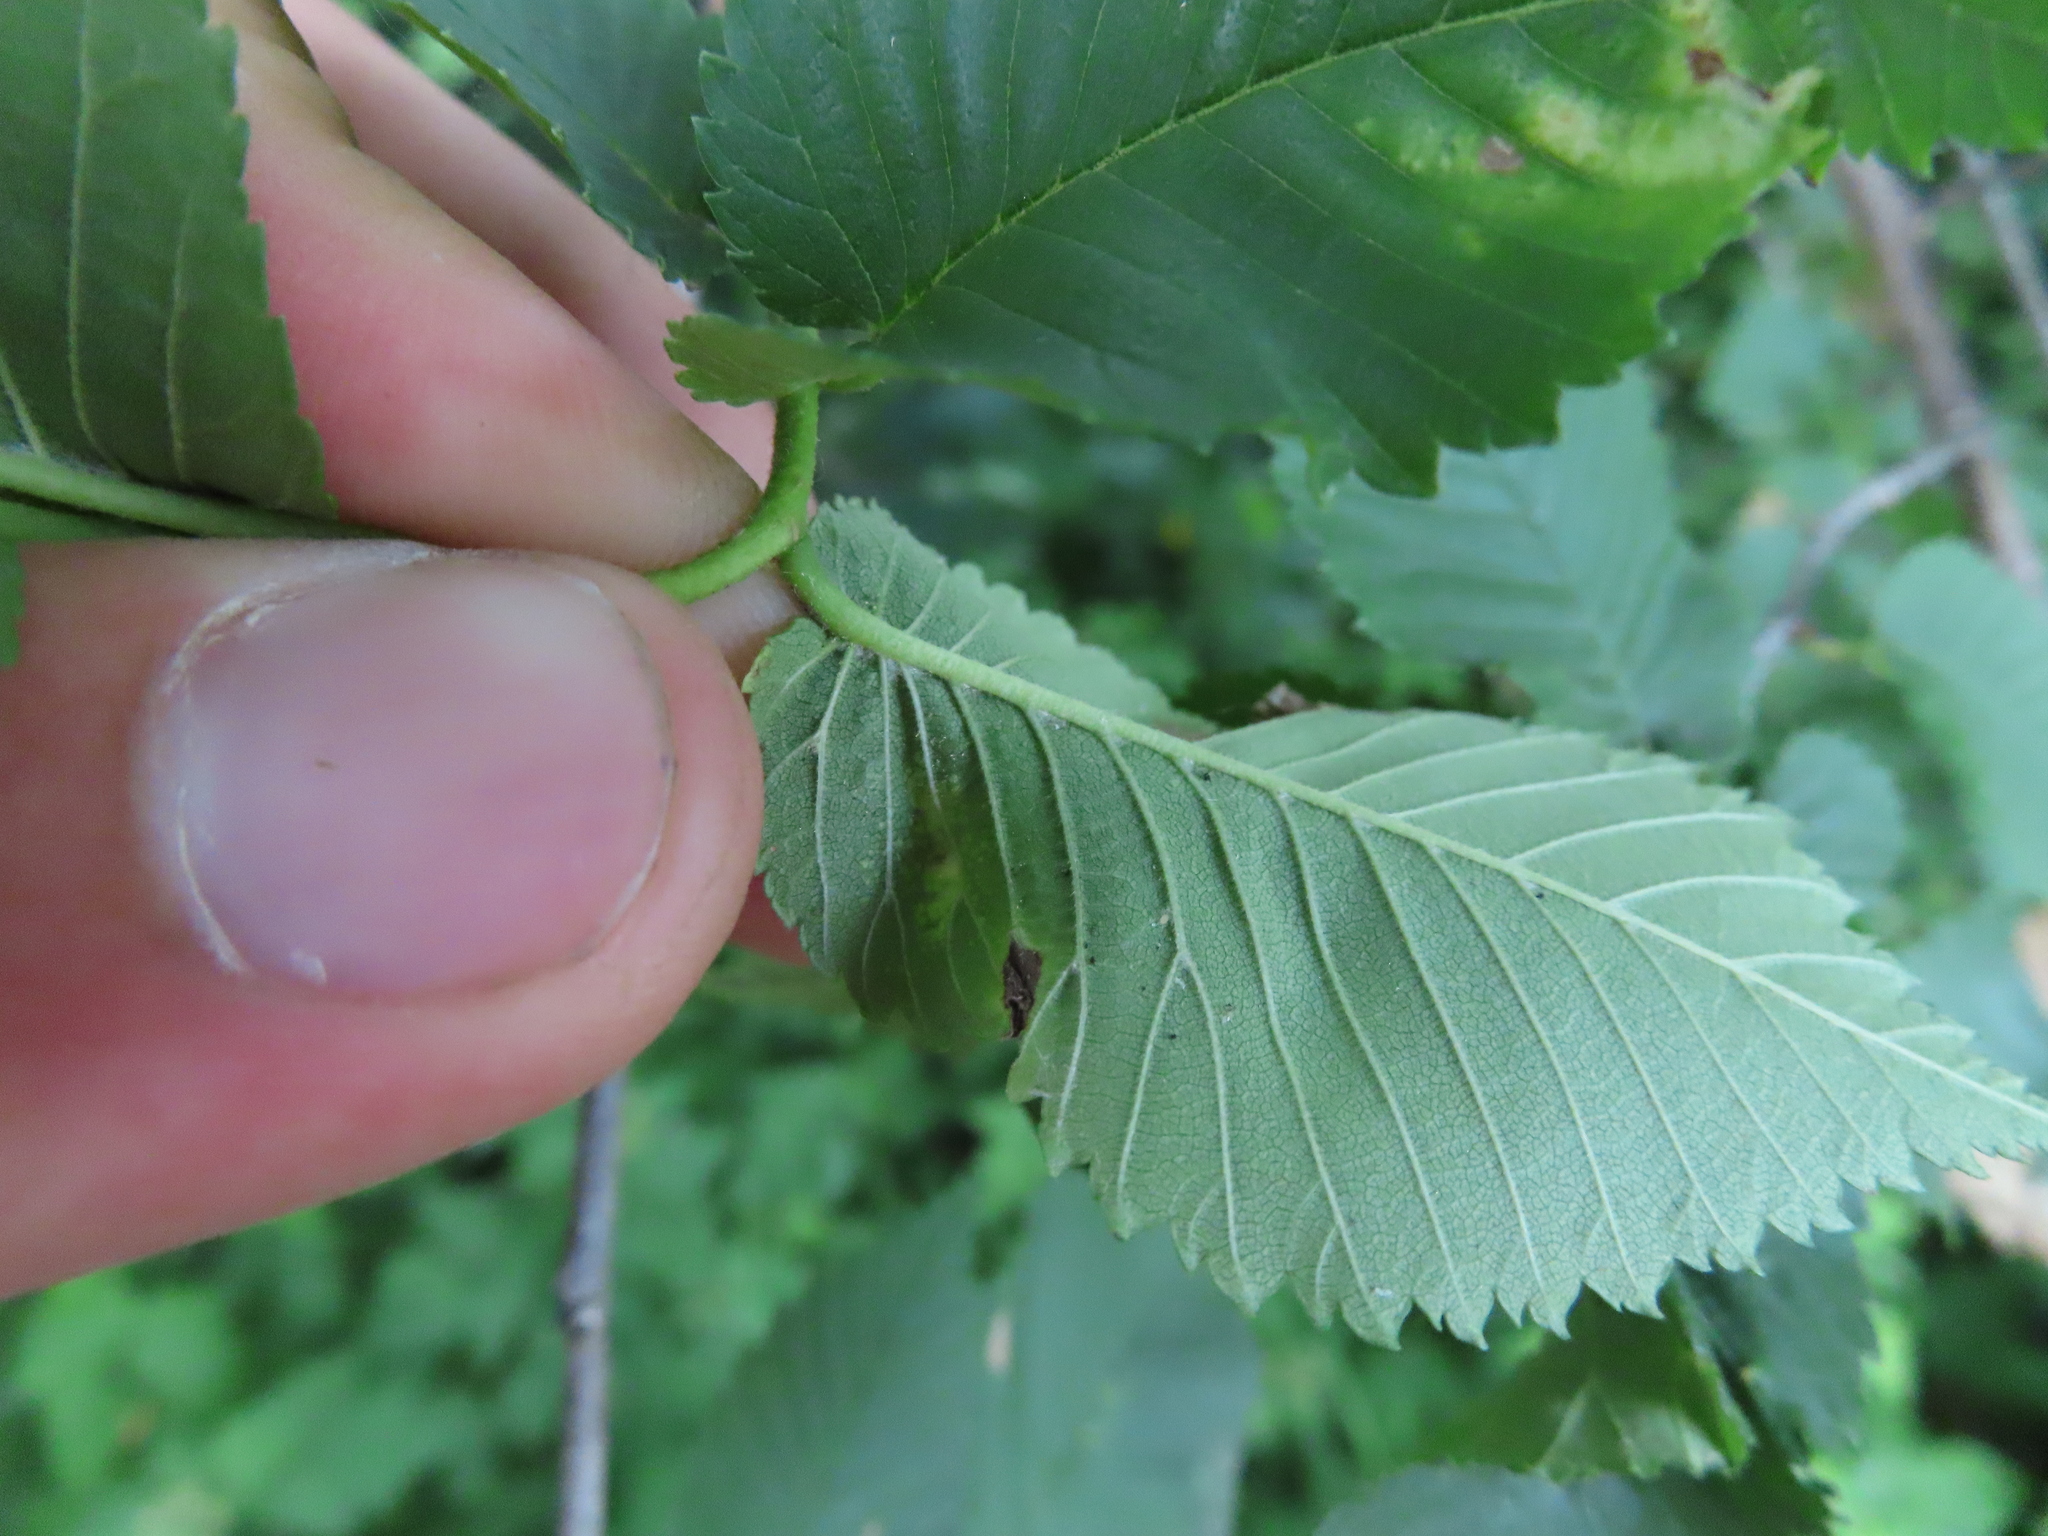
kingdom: Animalia
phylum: Arthropoda
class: Insecta
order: Hemiptera
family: Aphididae
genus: Tetraneura
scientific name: Tetraneura nigriabdominalis
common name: Aphid
